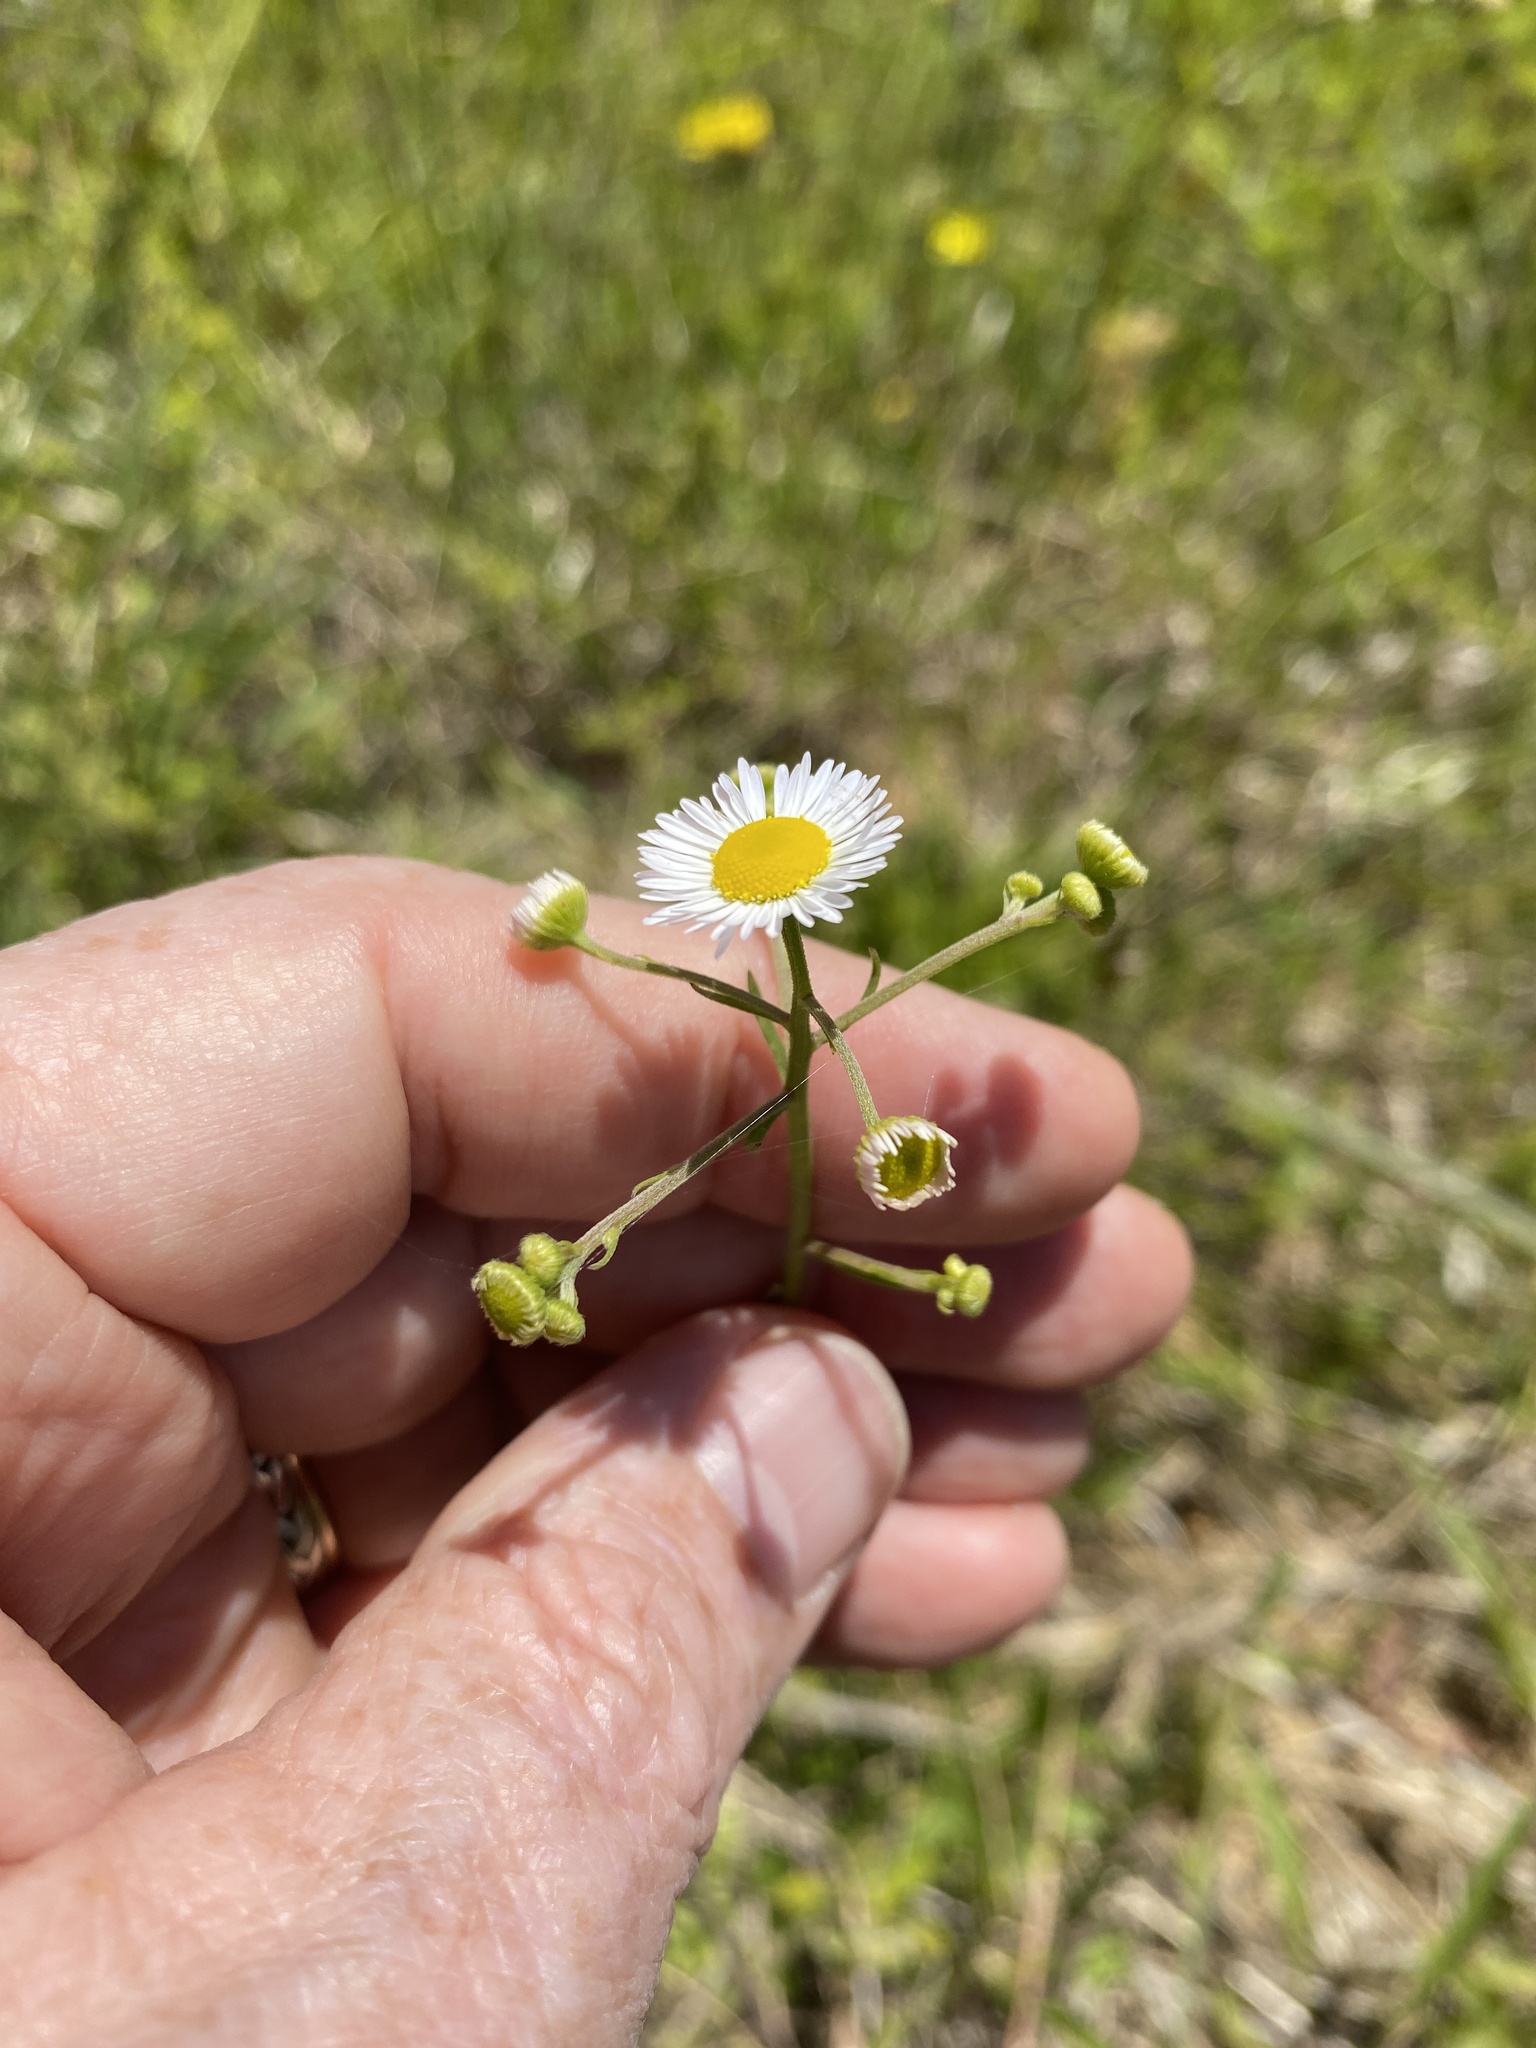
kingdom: Plantae
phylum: Tracheophyta
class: Magnoliopsida
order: Asterales
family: Asteraceae
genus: Erigeron
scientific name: Erigeron strigosus
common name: Common eastern fleabane
